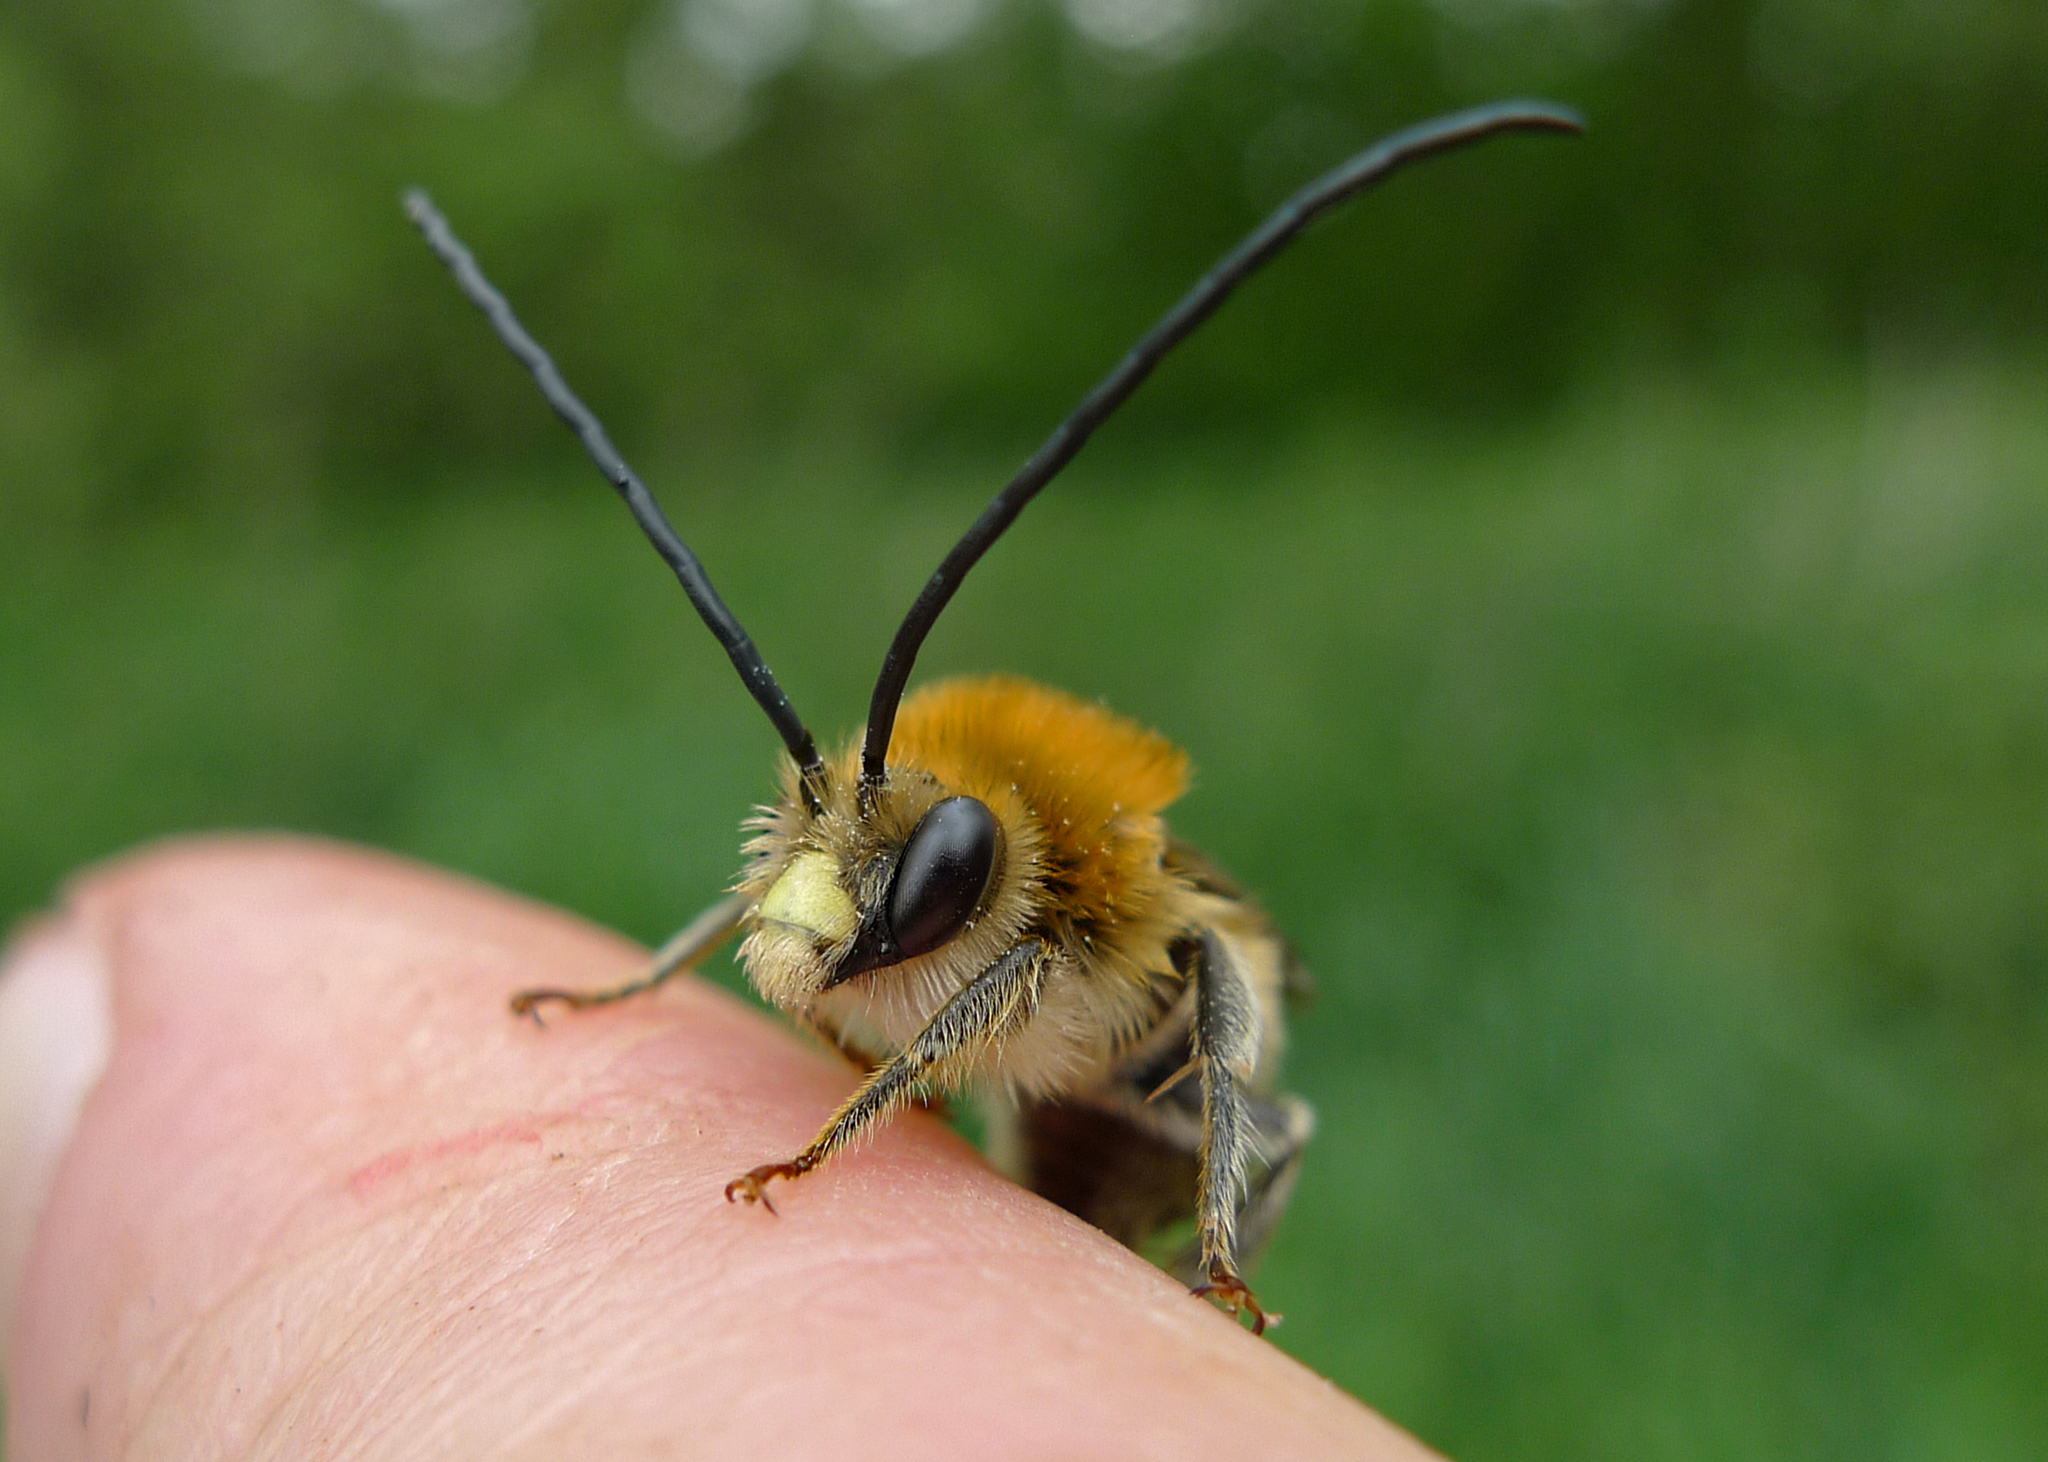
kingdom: Animalia
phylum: Arthropoda
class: Insecta
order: Hymenoptera
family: Apidae
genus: Eucera
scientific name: Eucera longicornis
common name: Long-horned bee
